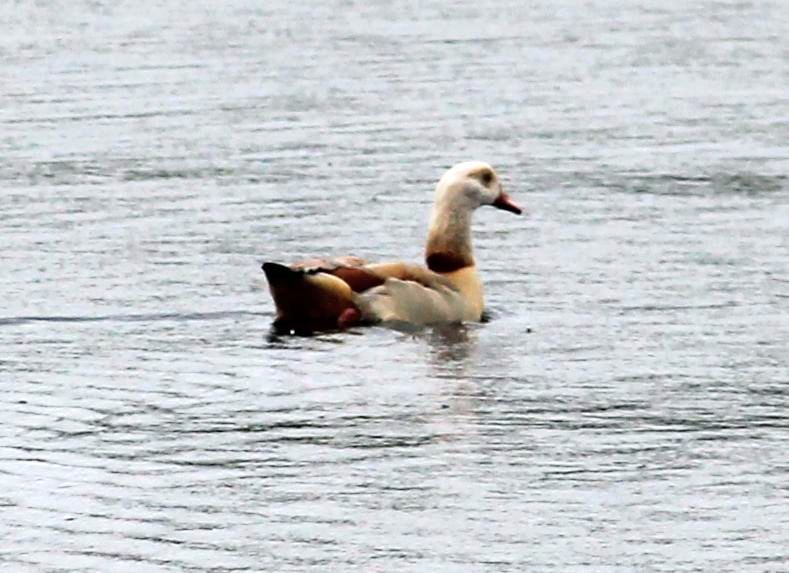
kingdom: Animalia
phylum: Chordata
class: Aves
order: Anseriformes
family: Anatidae
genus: Alopochen
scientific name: Alopochen aegyptiaca
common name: Egyptian goose
